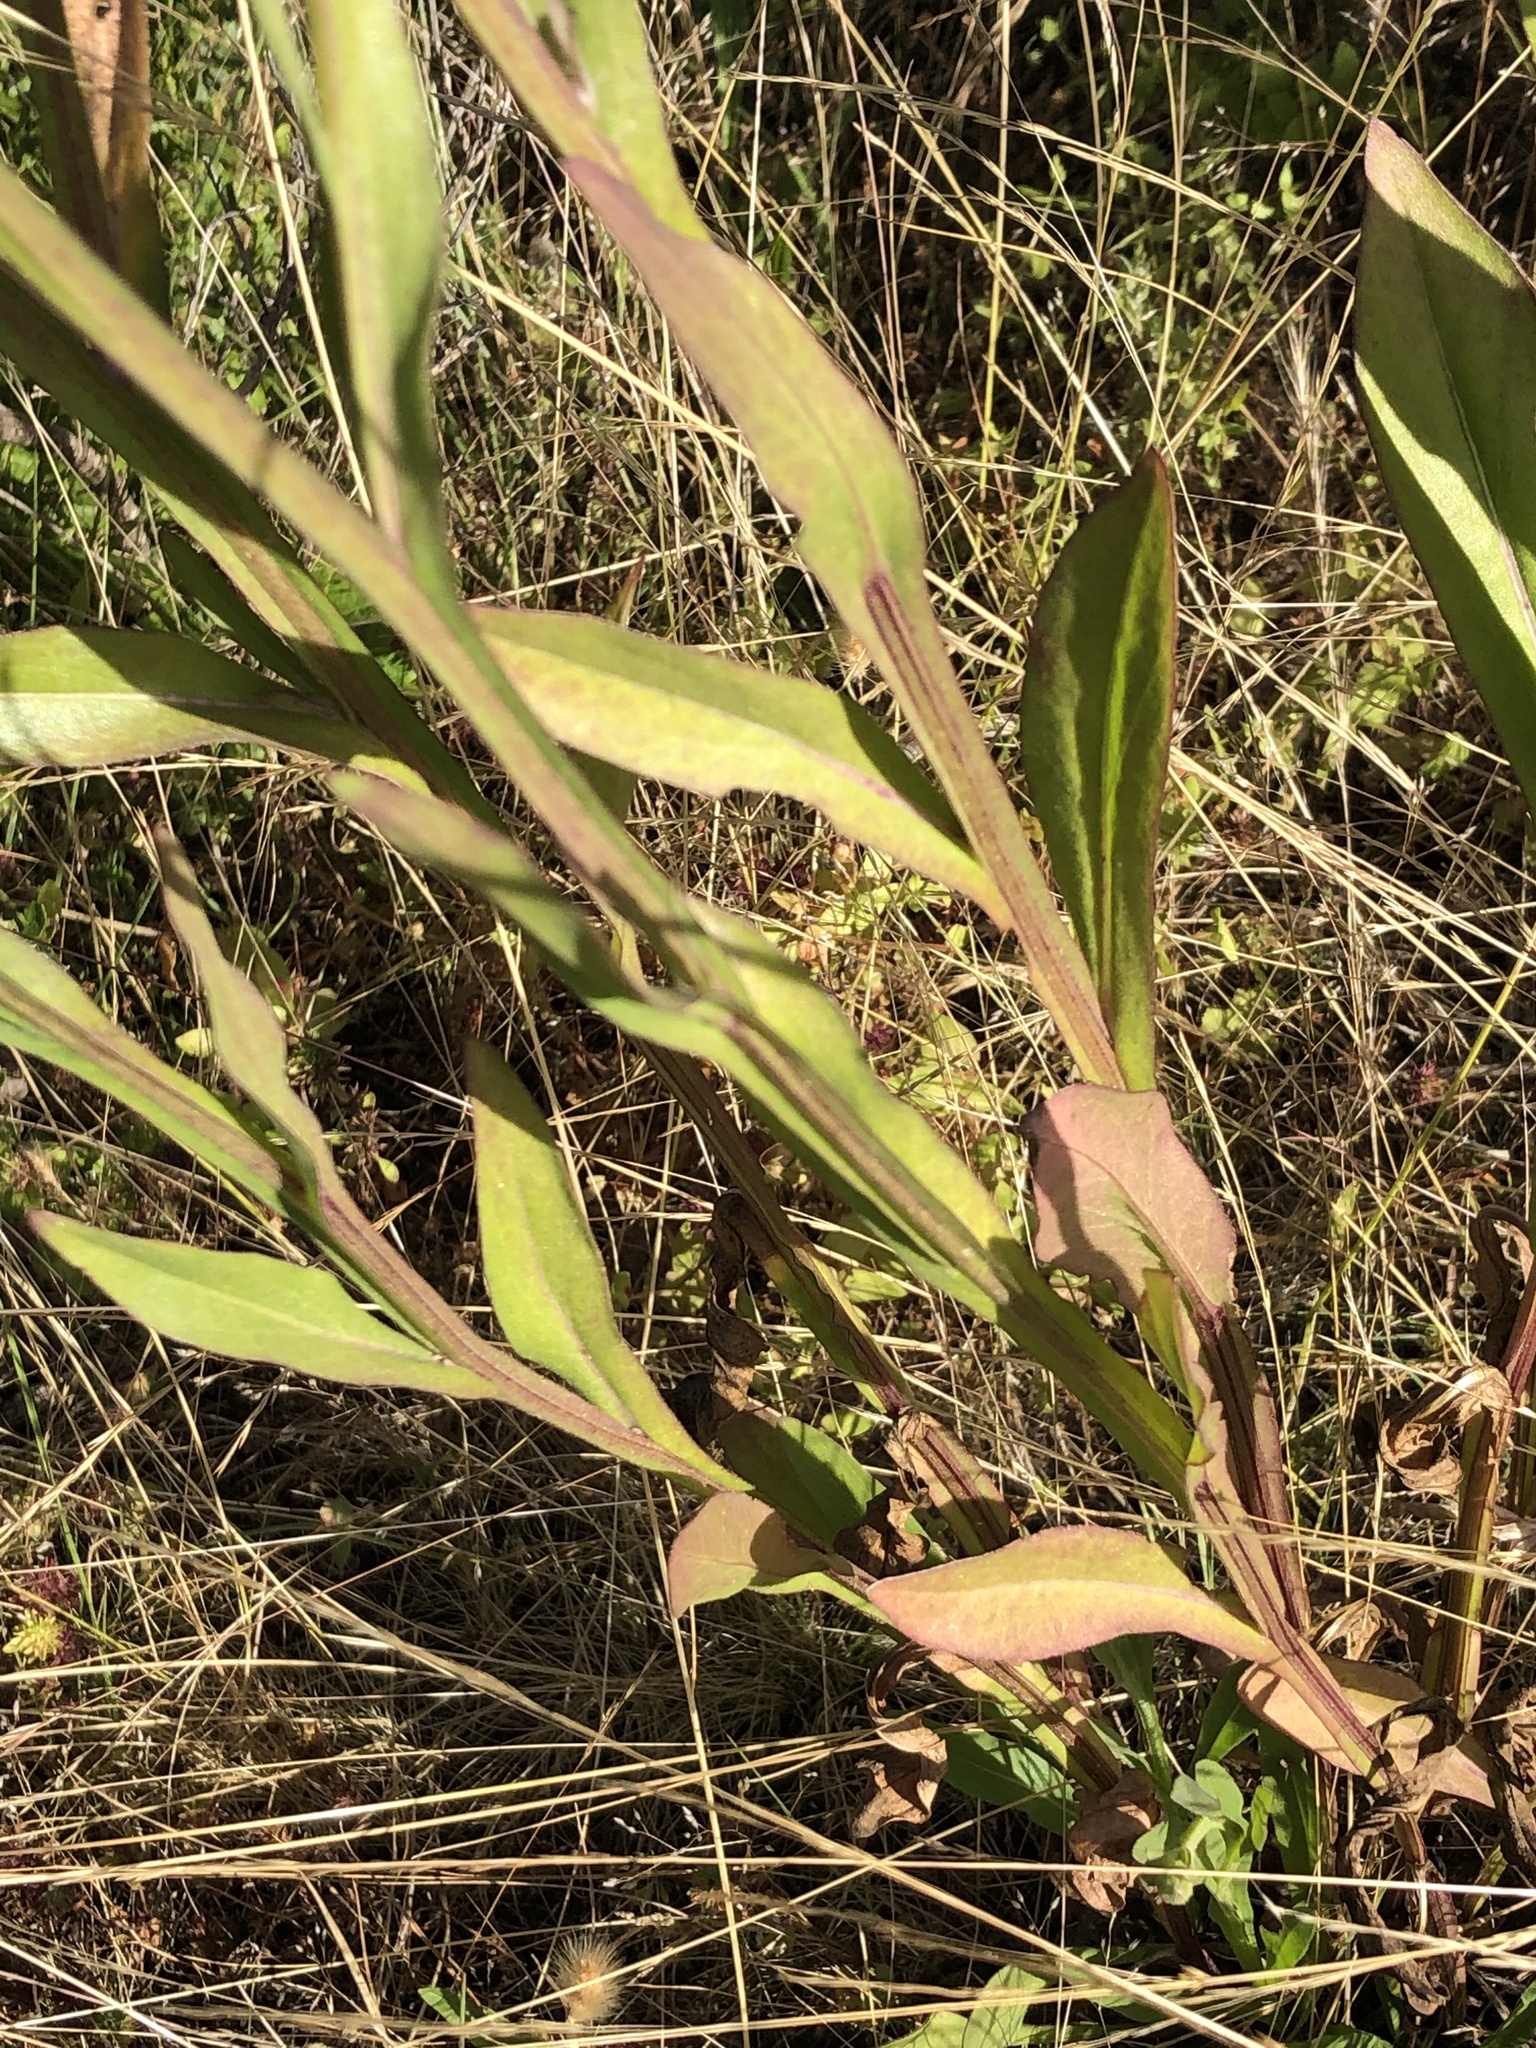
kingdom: Plantae
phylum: Tracheophyta
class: Magnoliopsida
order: Asterales
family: Asteraceae
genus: Helenium
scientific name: Helenium puberulum
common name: Sneezewort
